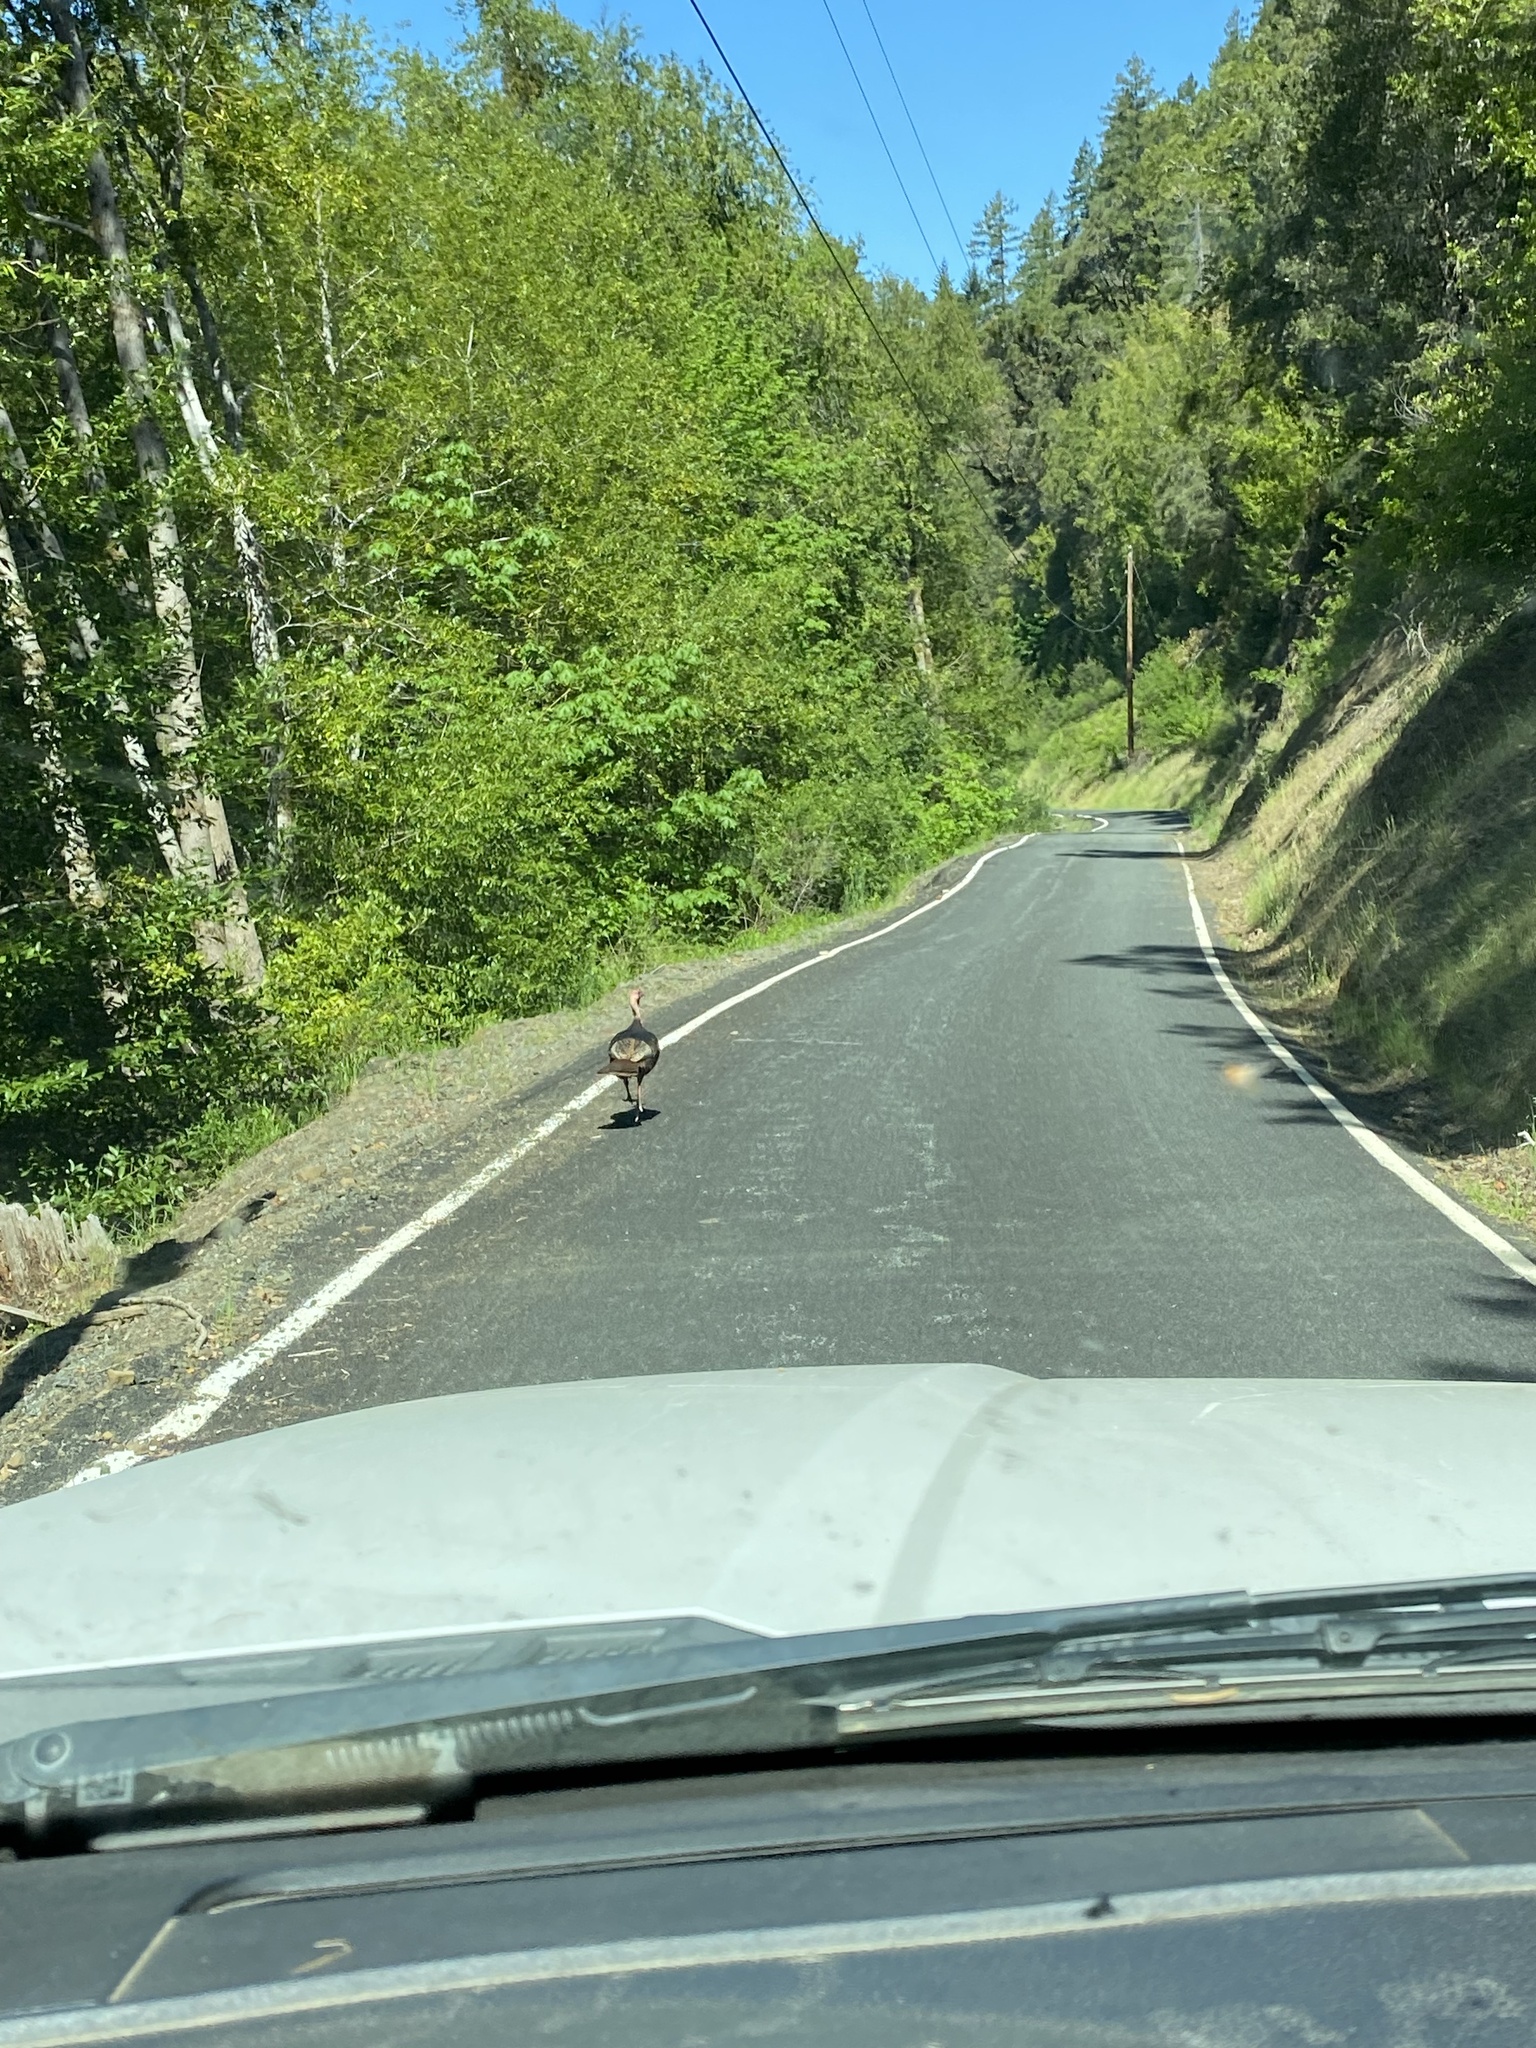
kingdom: Animalia
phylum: Chordata
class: Aves
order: Galliformes
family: Phasianidae
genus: Meleagris
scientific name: Meleagris gallopavo
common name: Wild turkey
